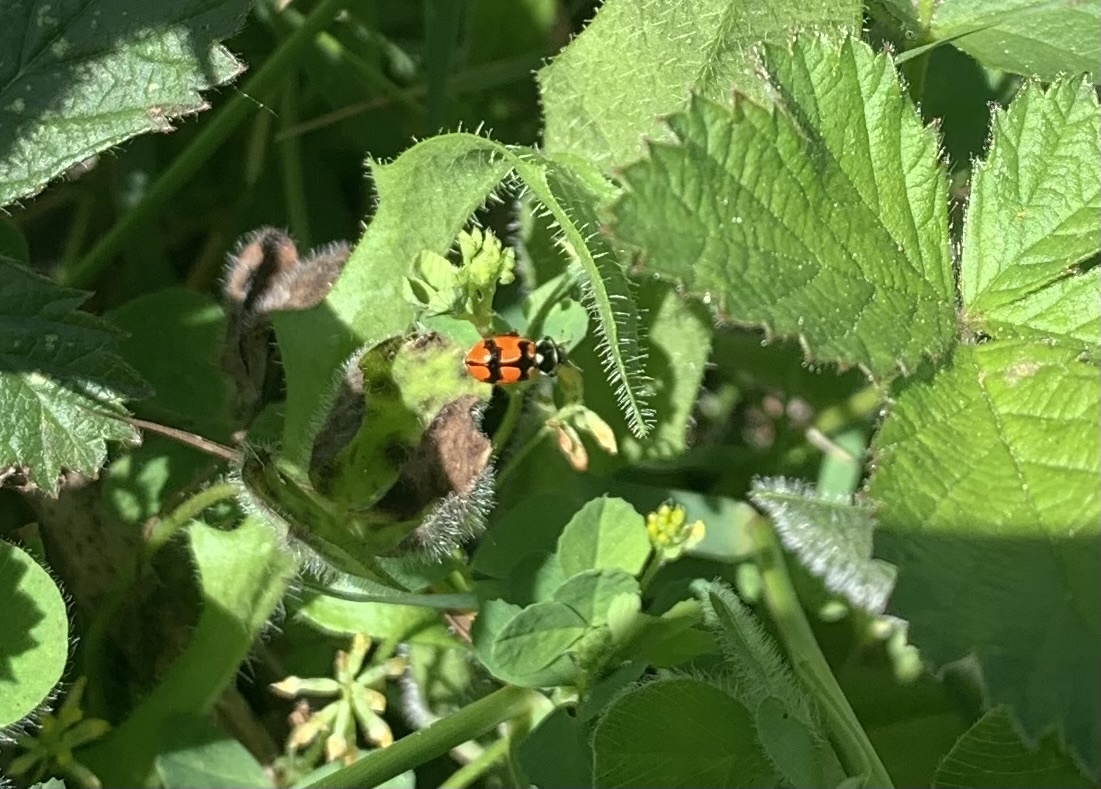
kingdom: Animalia
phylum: Arthropoda
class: Insecta
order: Coleoptera
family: Coccinellidae
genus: Eriopis
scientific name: Eriopis eschscholtzii
